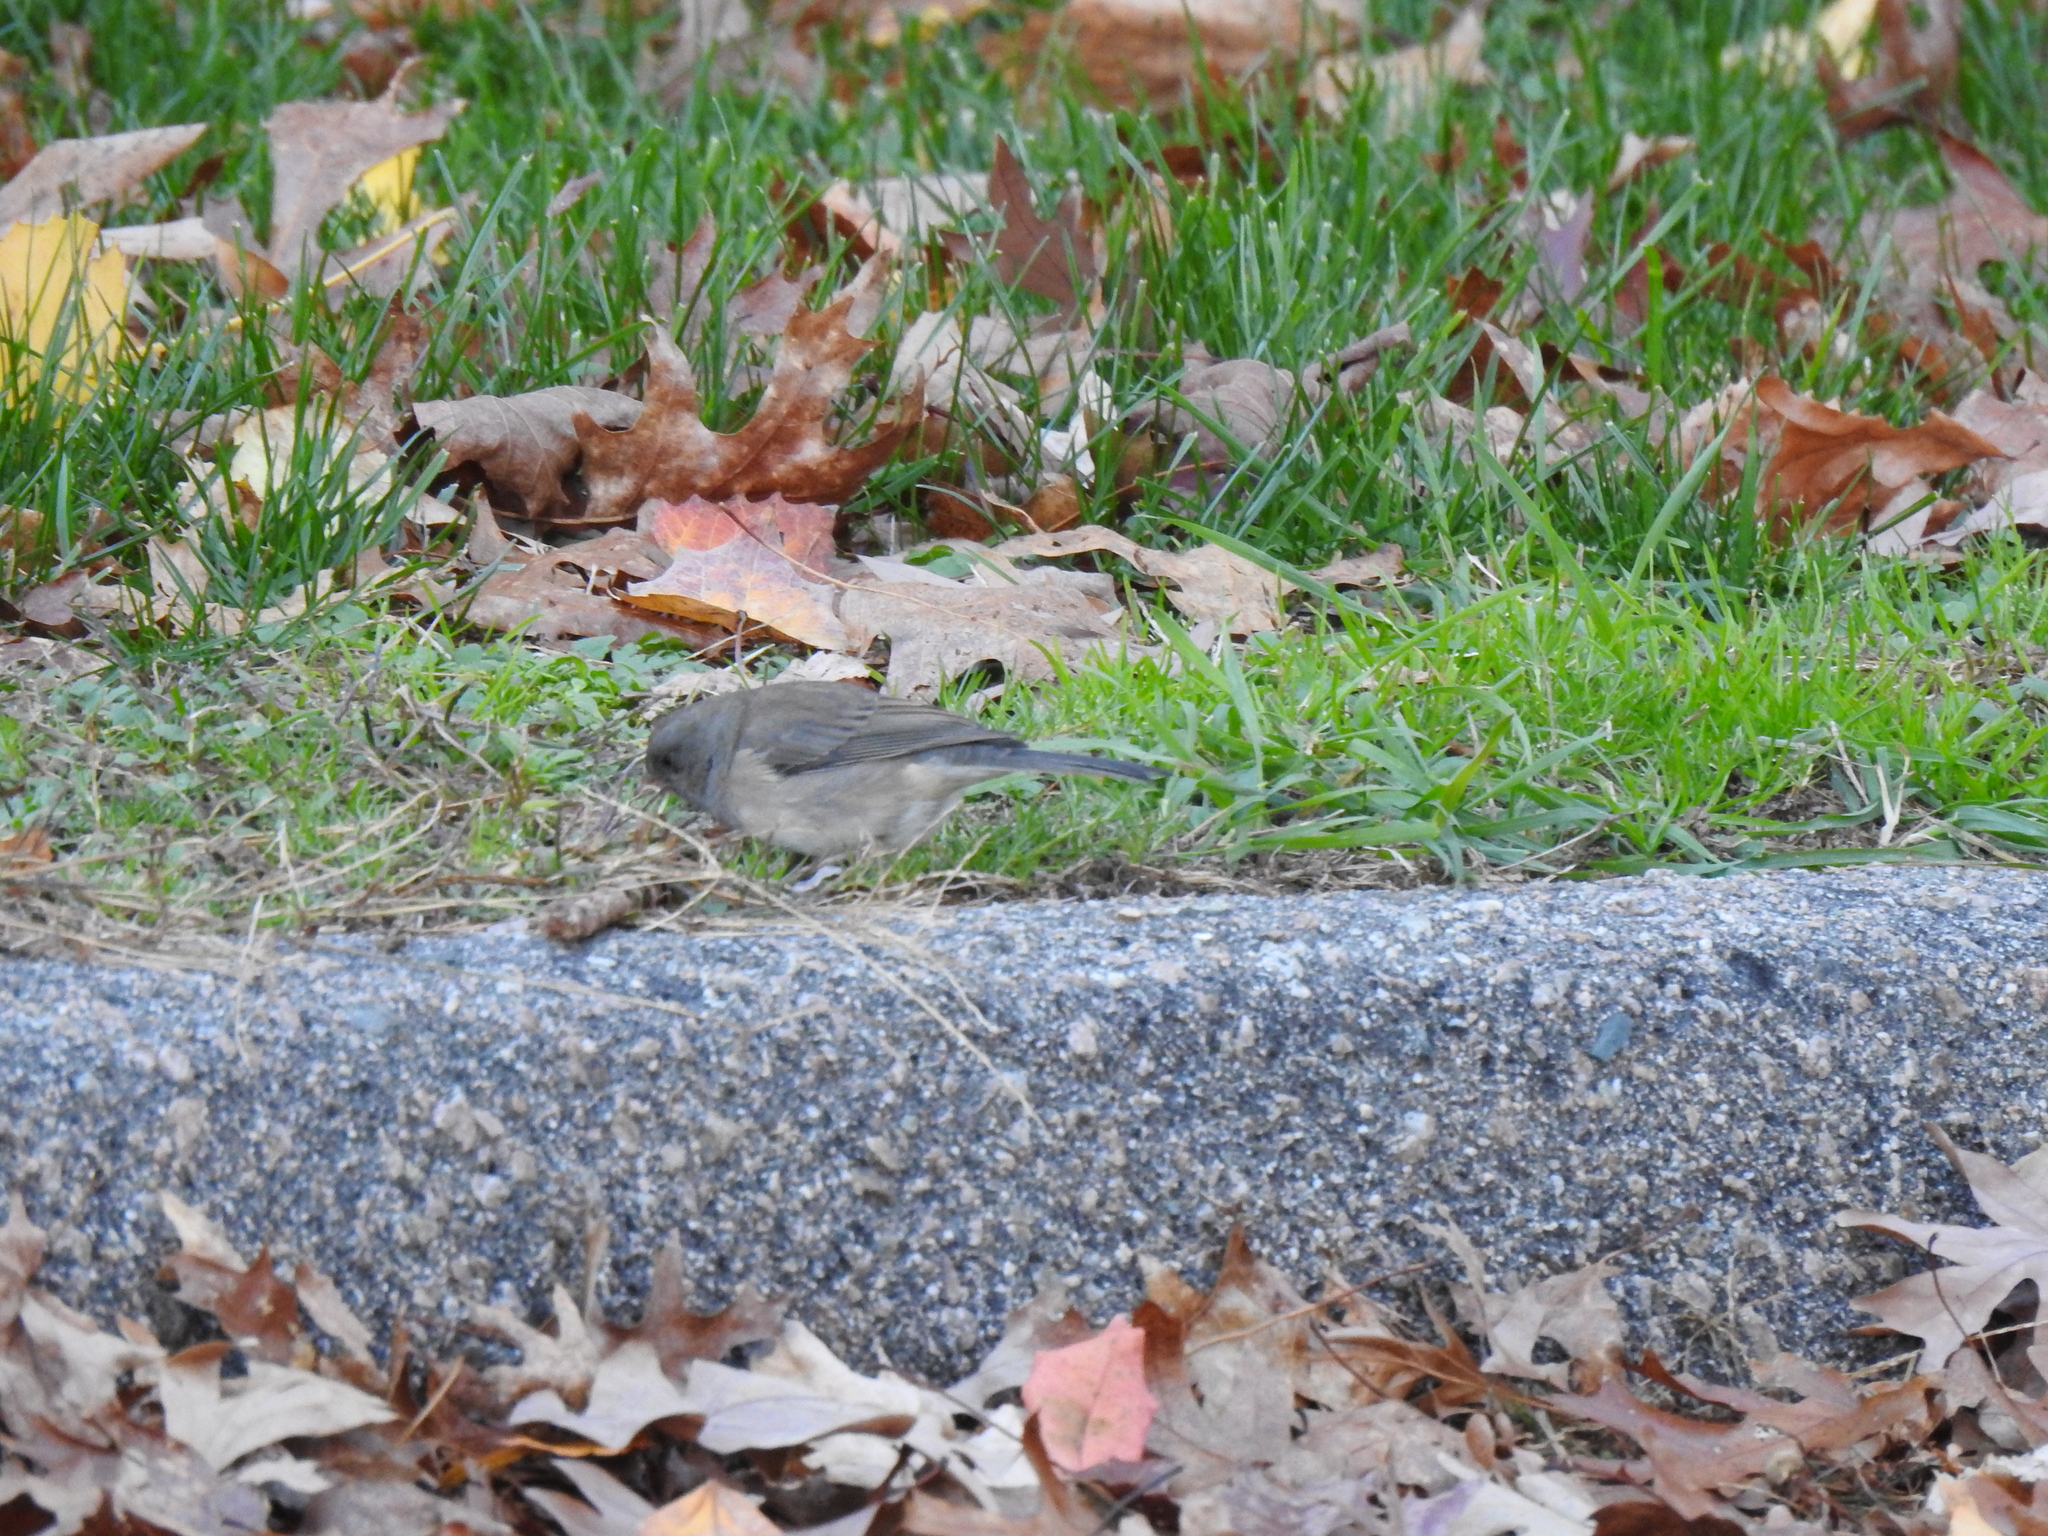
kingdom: Animalia
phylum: Chordata
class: Aves
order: Passeriformes
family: Passerellidae
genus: Junco
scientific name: Junco hyemalis
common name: Dark-eyed junco
